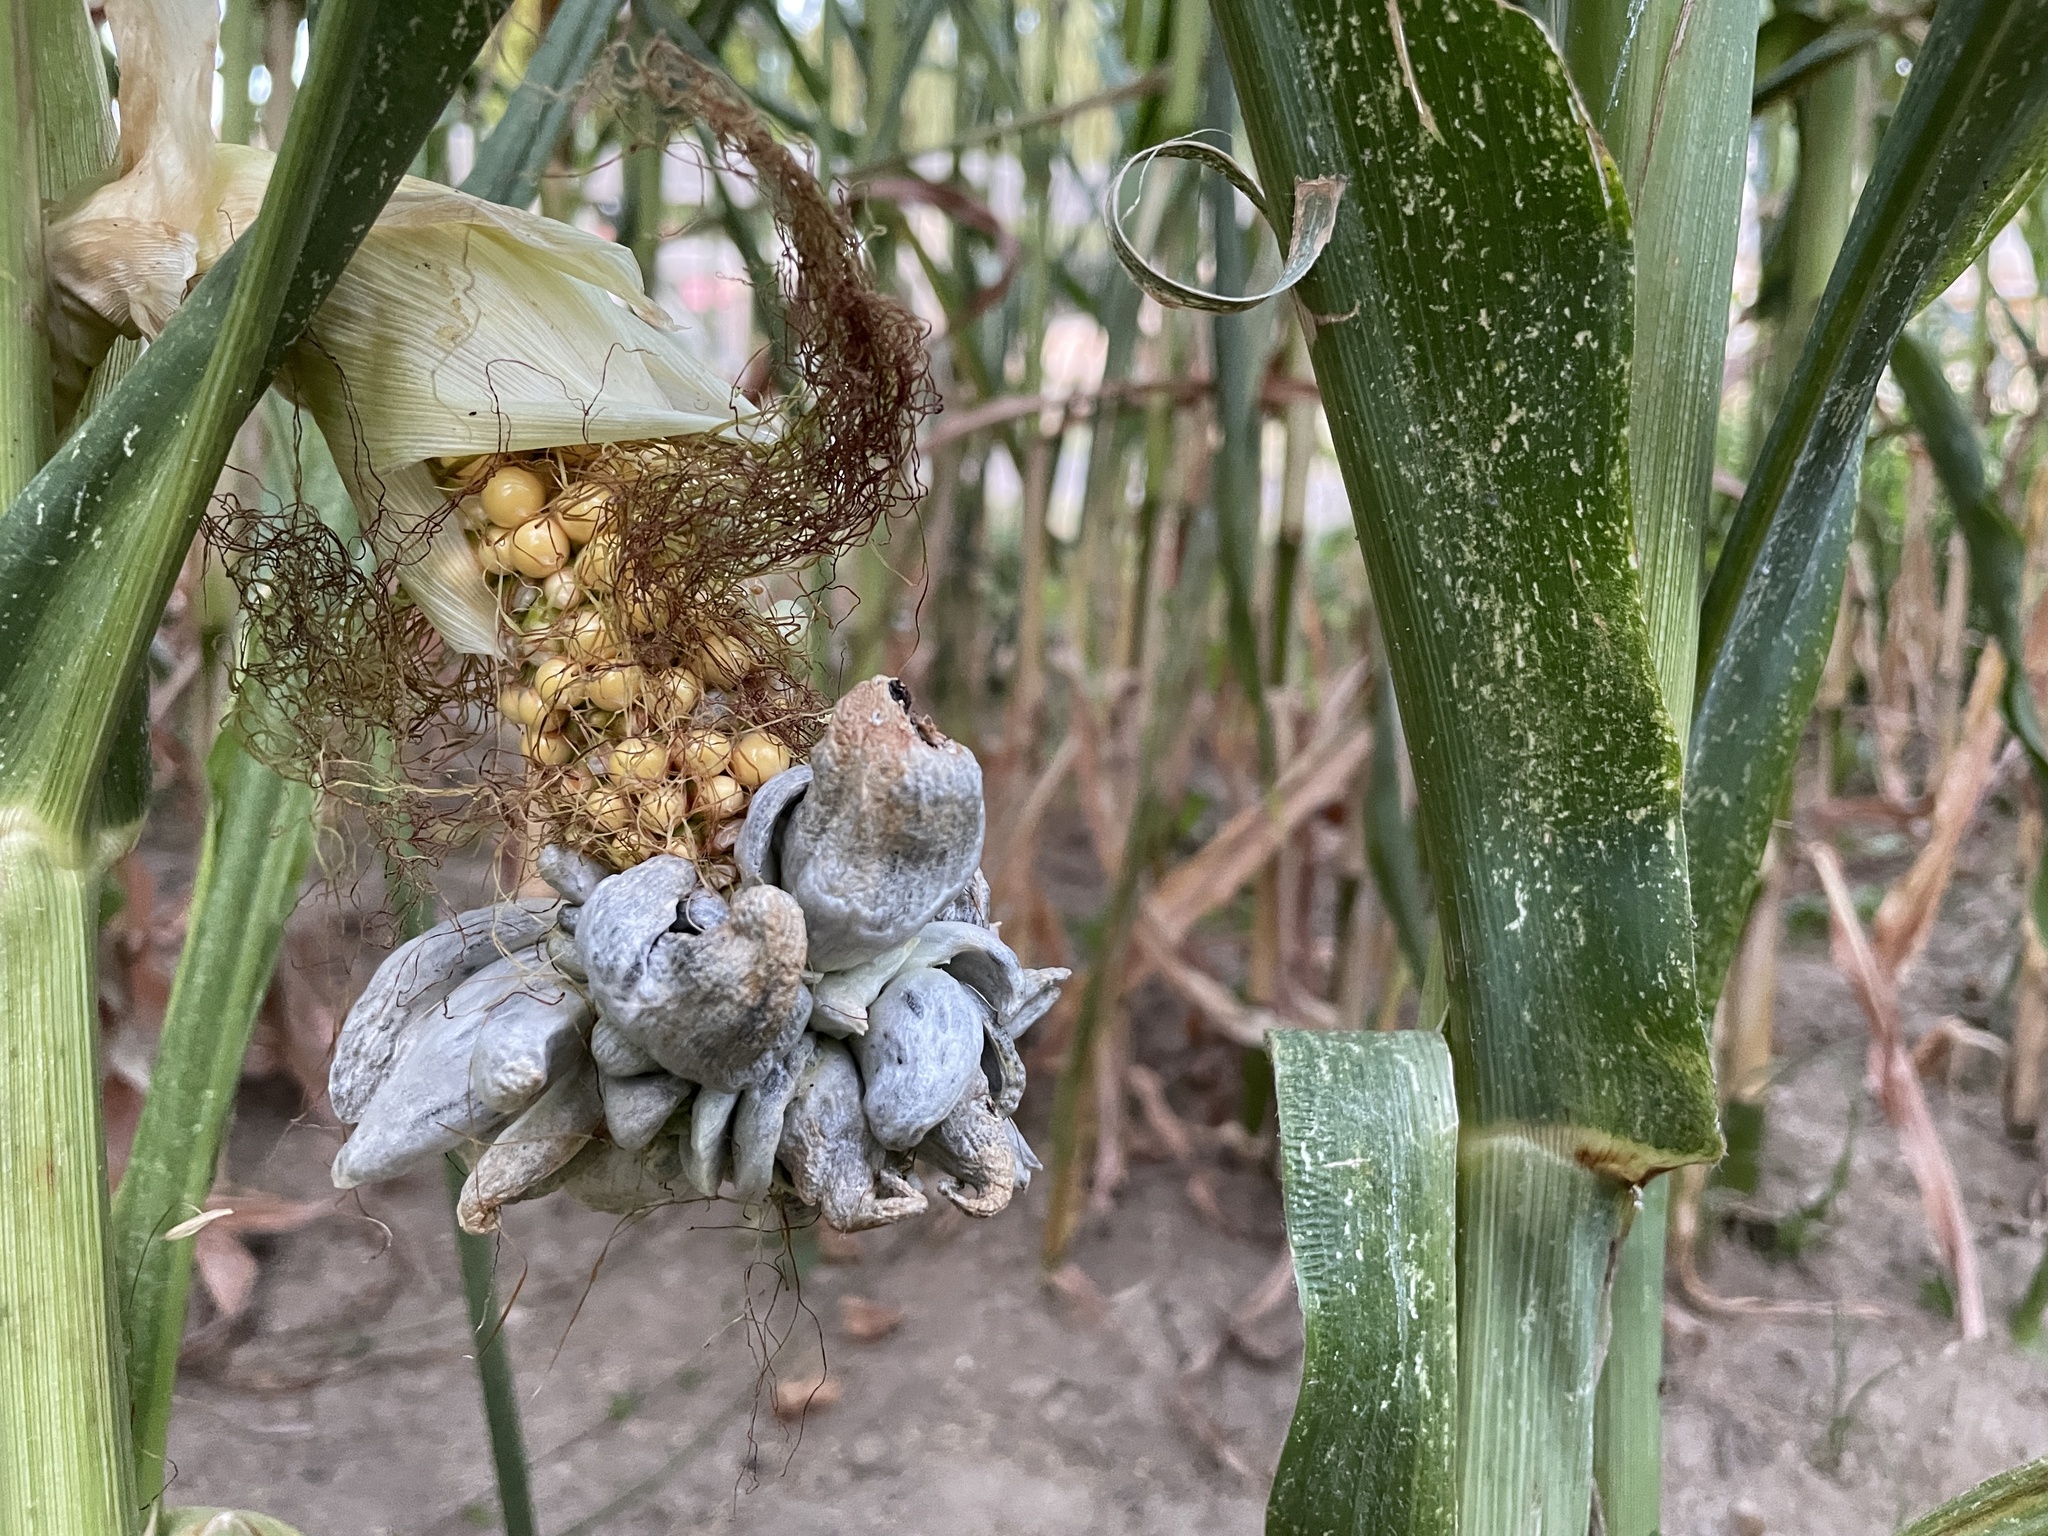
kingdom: Fungi
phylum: Basidiomycota
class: Ustilaginomycetes
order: Ustilaginales
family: Ustilaginaceae
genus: Mycosarcoma
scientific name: Mycosarcoma maydis
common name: Corn smut
